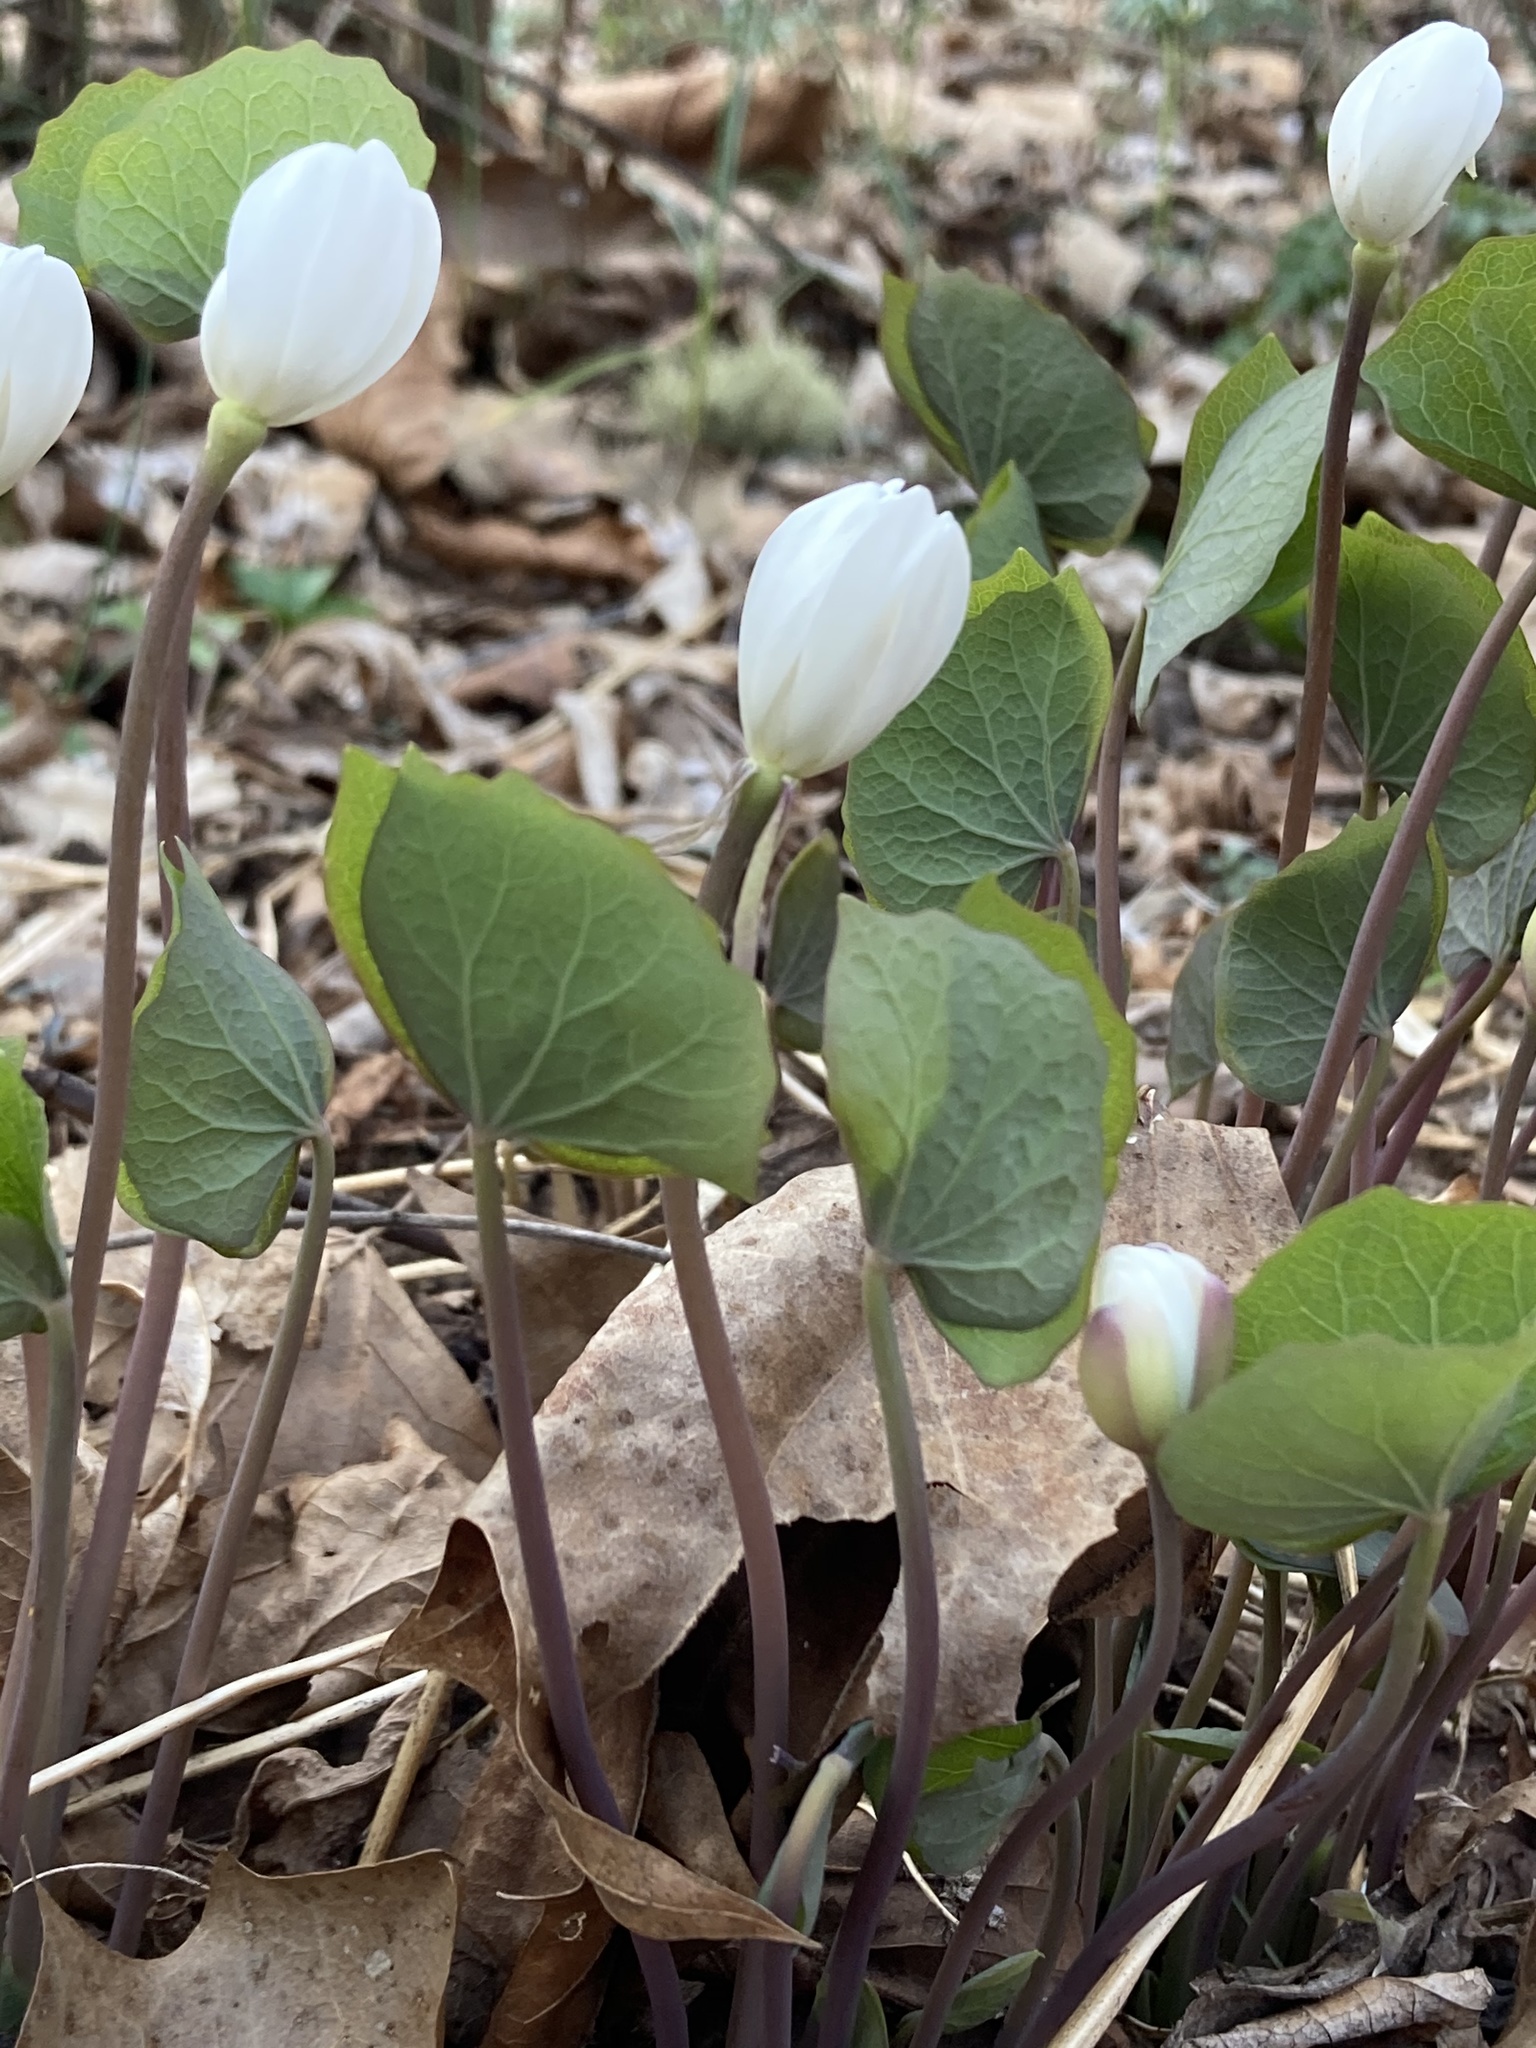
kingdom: Plantae
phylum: Tracheophyta
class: Magnoliopsida
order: Ranunculales
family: Berberidaceae
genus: Jeffersonia
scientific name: Jeffersonia diphylla
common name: Rheumatism-root
